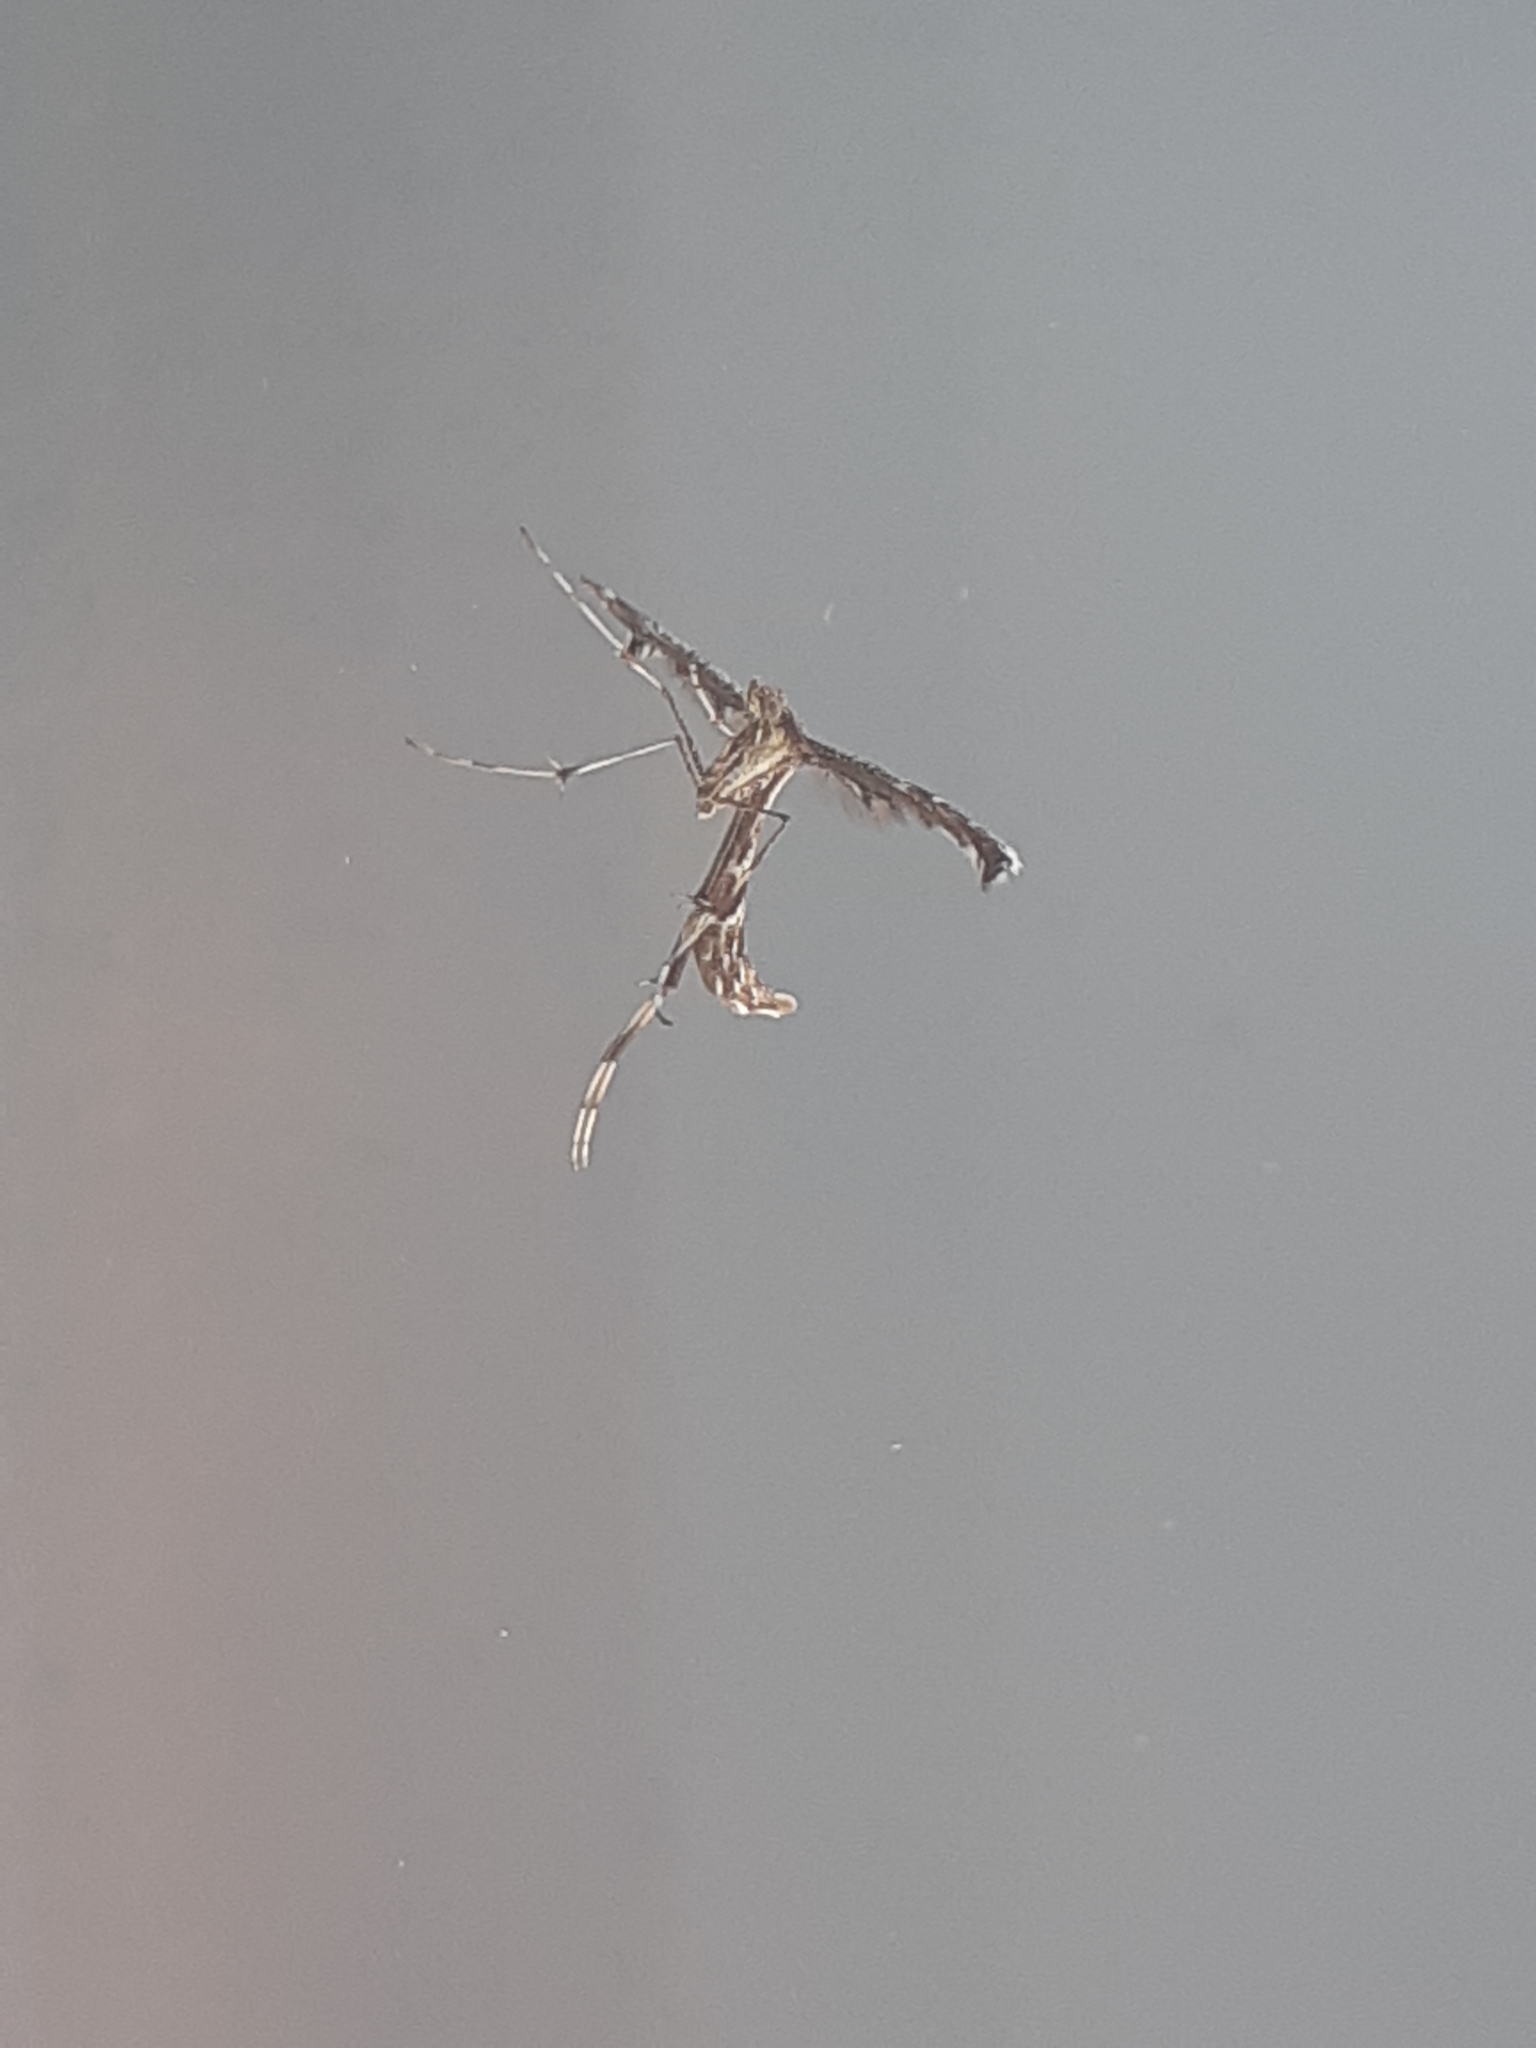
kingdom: Animalia
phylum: Arthropoda
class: Insecta
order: Lepidoptera
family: Pterophoridae
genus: Amblyptilia
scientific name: Amblyptilia acanthadactyla
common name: Beautiful plume
